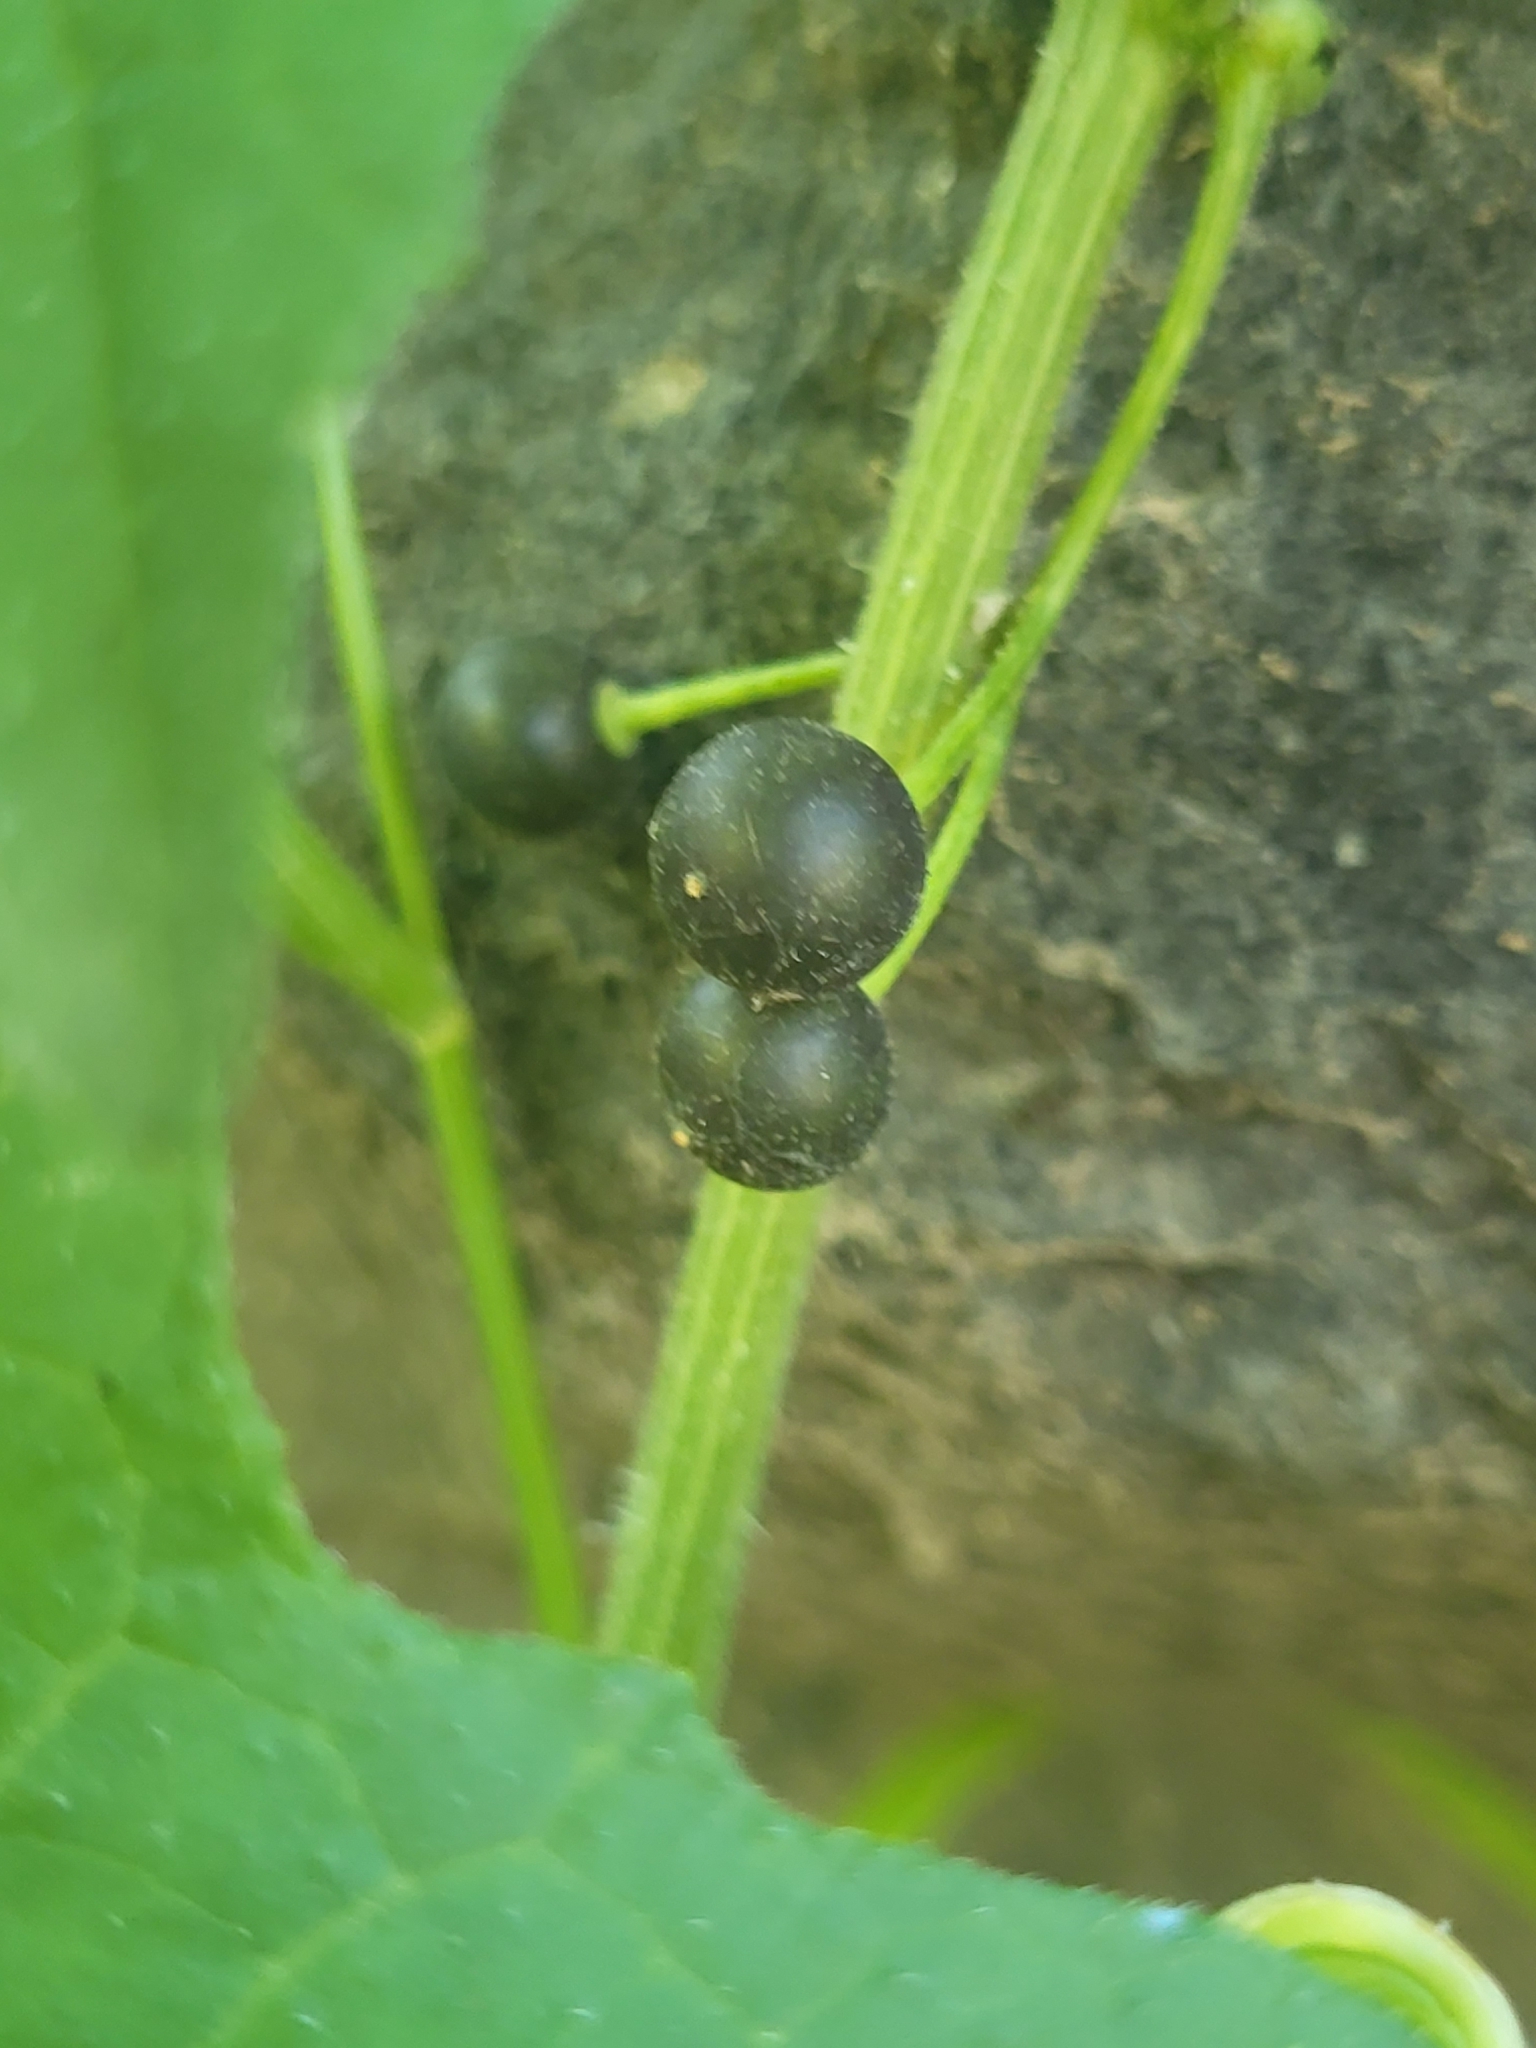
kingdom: Plantae
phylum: Tracheophyta
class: Magnoliopsida
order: Cucurbitales
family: Cucurbitaceae
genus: Bryonia
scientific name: Bryonia alba
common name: White bryony
